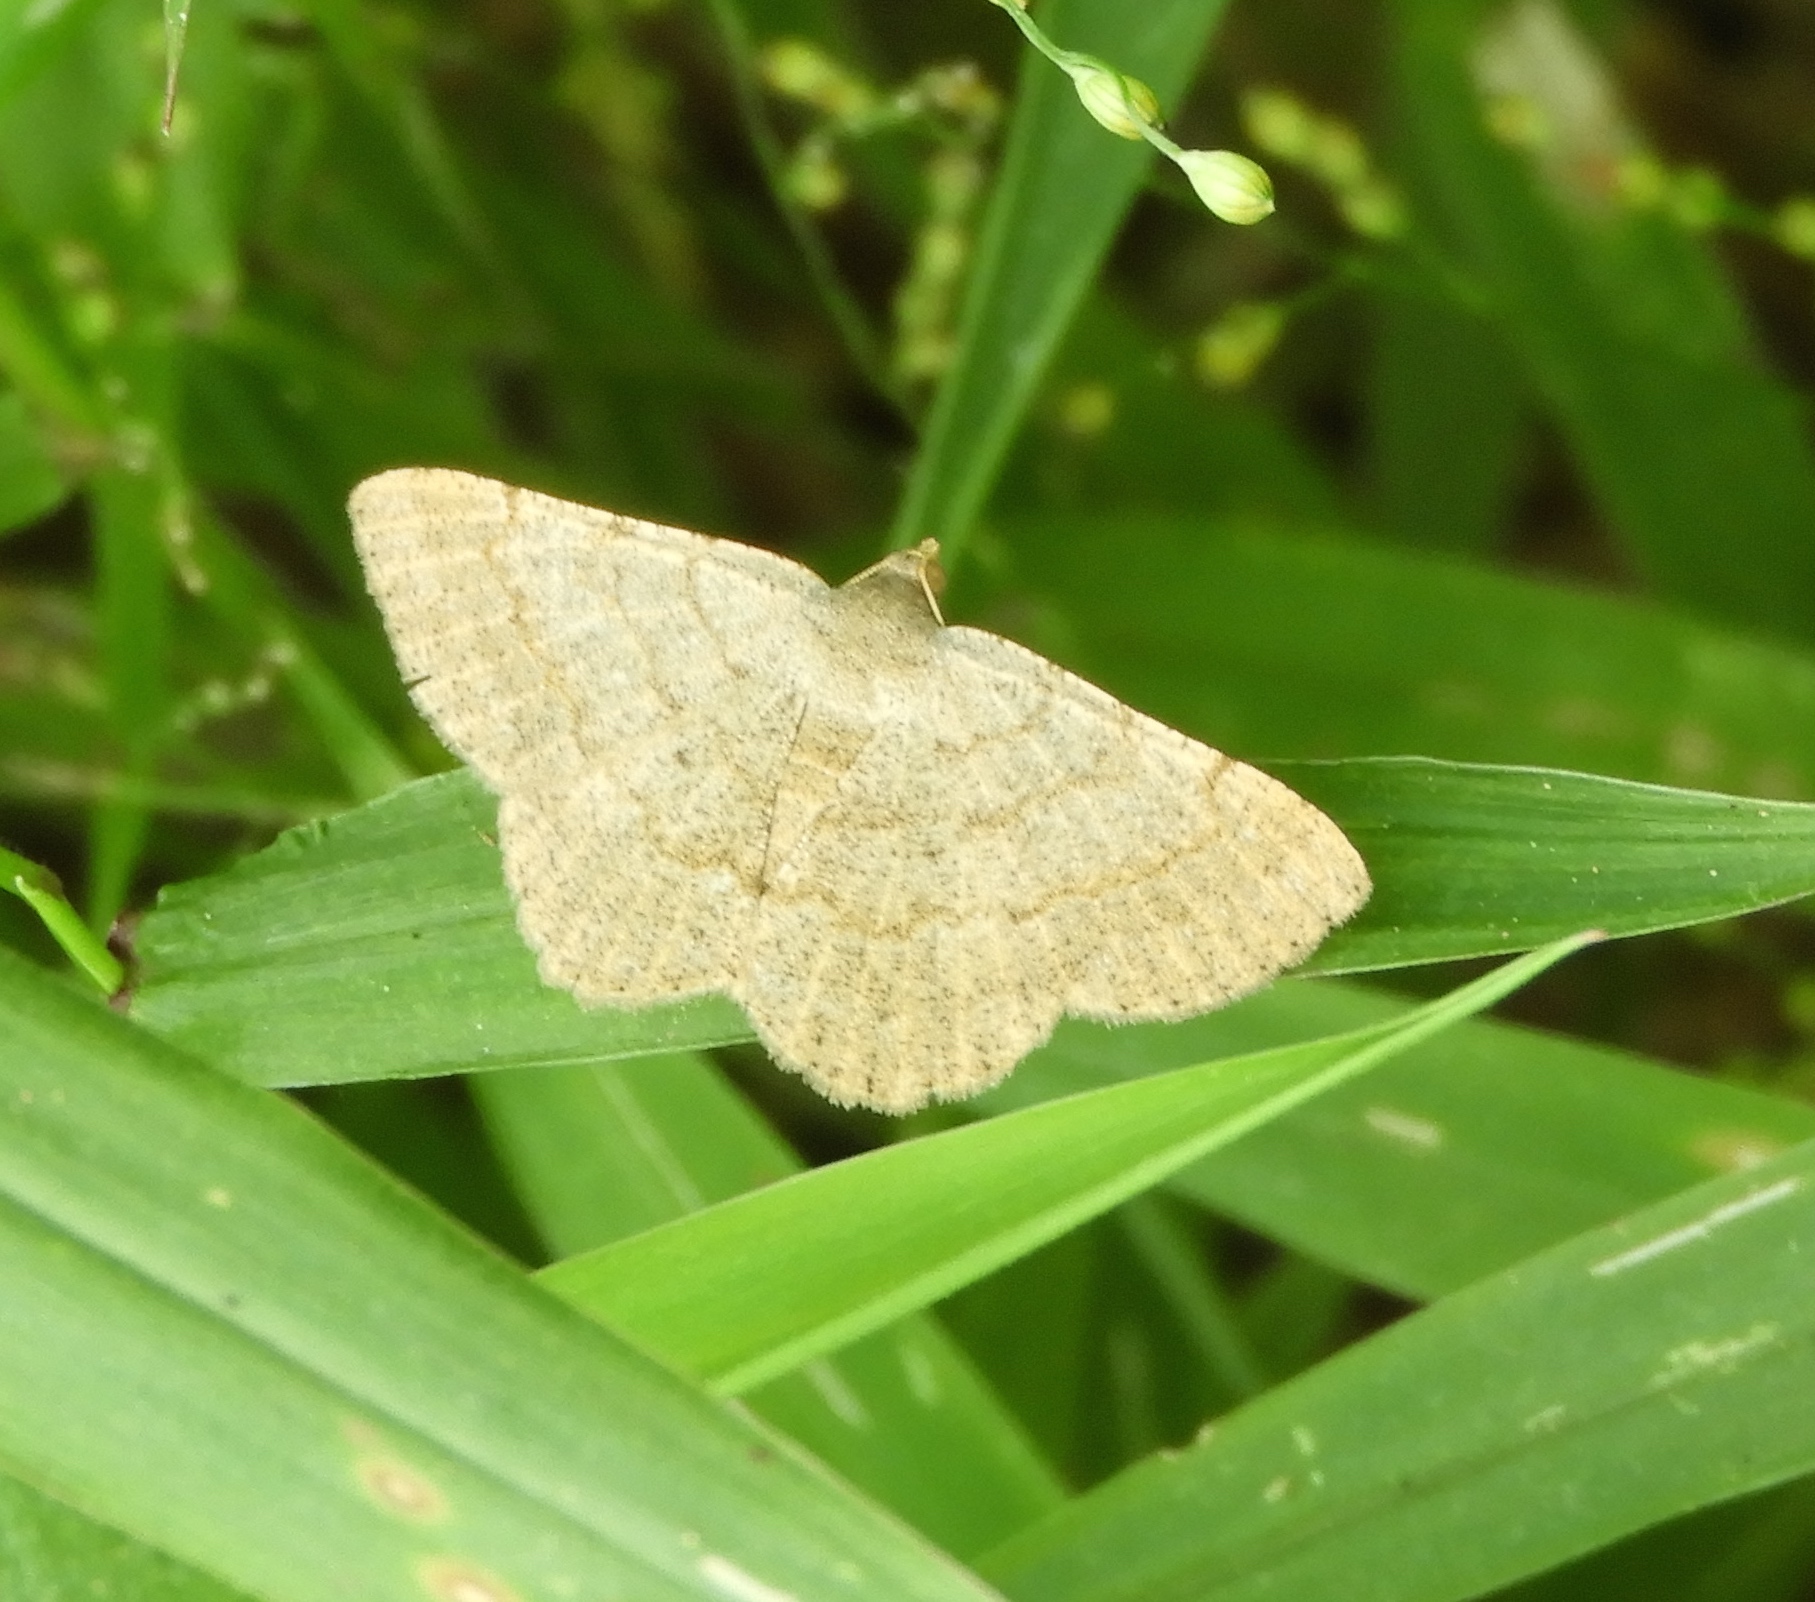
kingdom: Animalia
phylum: Arthropoda
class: Insecta
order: Lepidoptera
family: Geometridae
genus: Digrammia
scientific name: Digrammia ocellinata
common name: Faint-spotted angle
